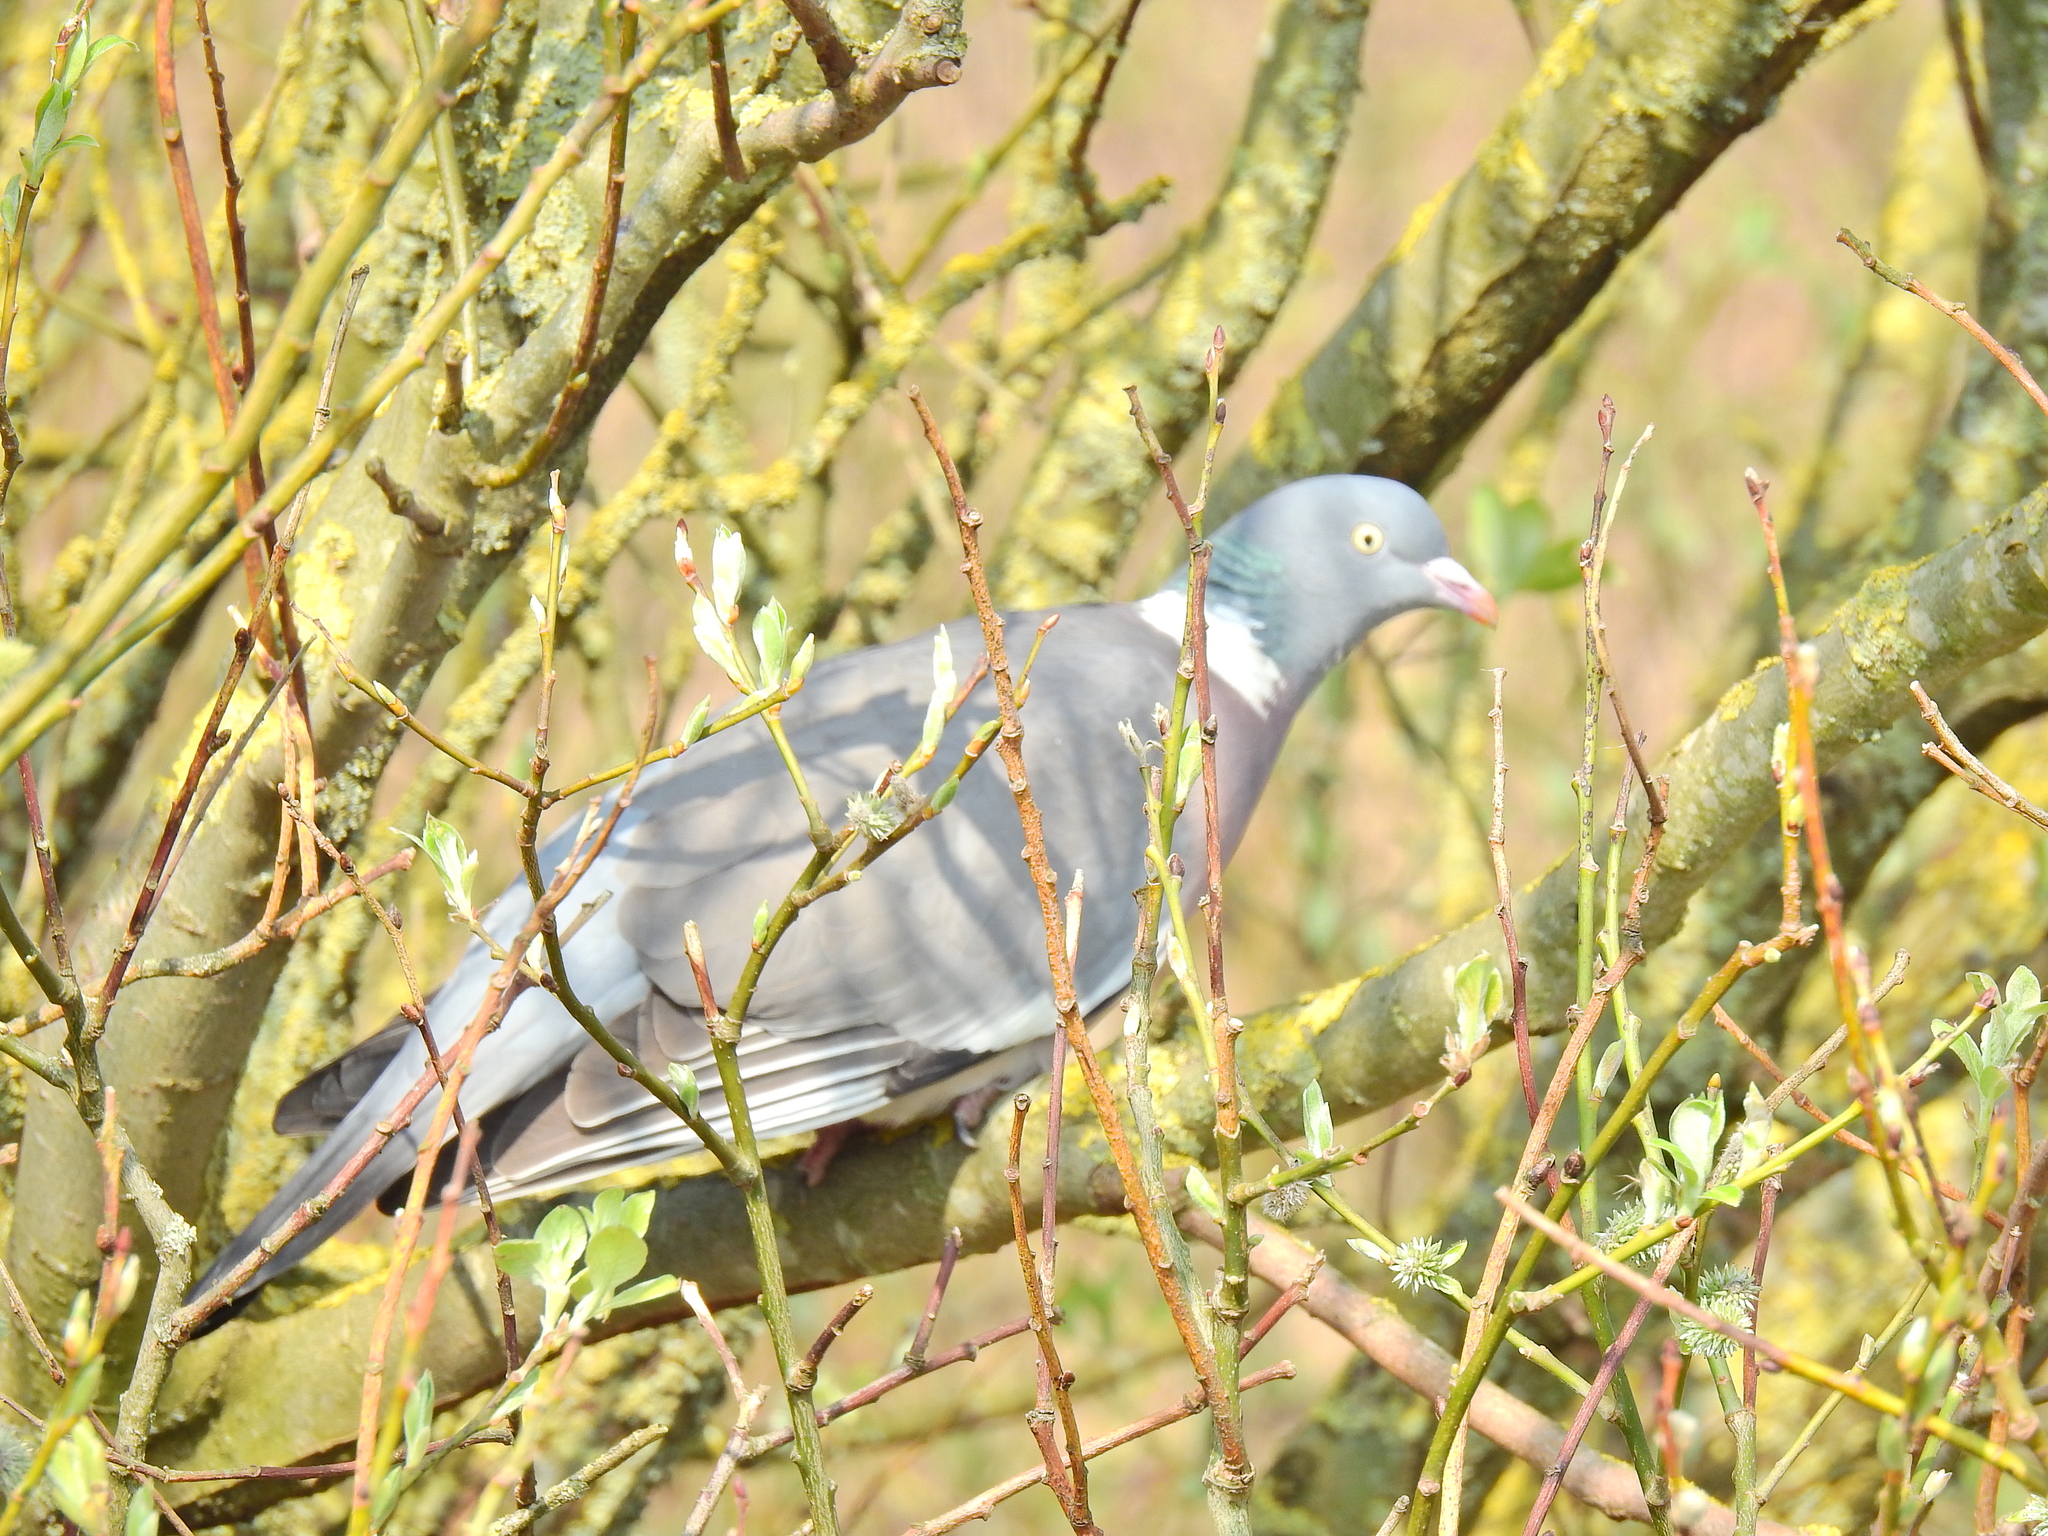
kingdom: Animalia
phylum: Chordata
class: Aves
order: Columbiformes
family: Columbidae
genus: Columba
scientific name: Columba palumbus
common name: Common wood pigeon
